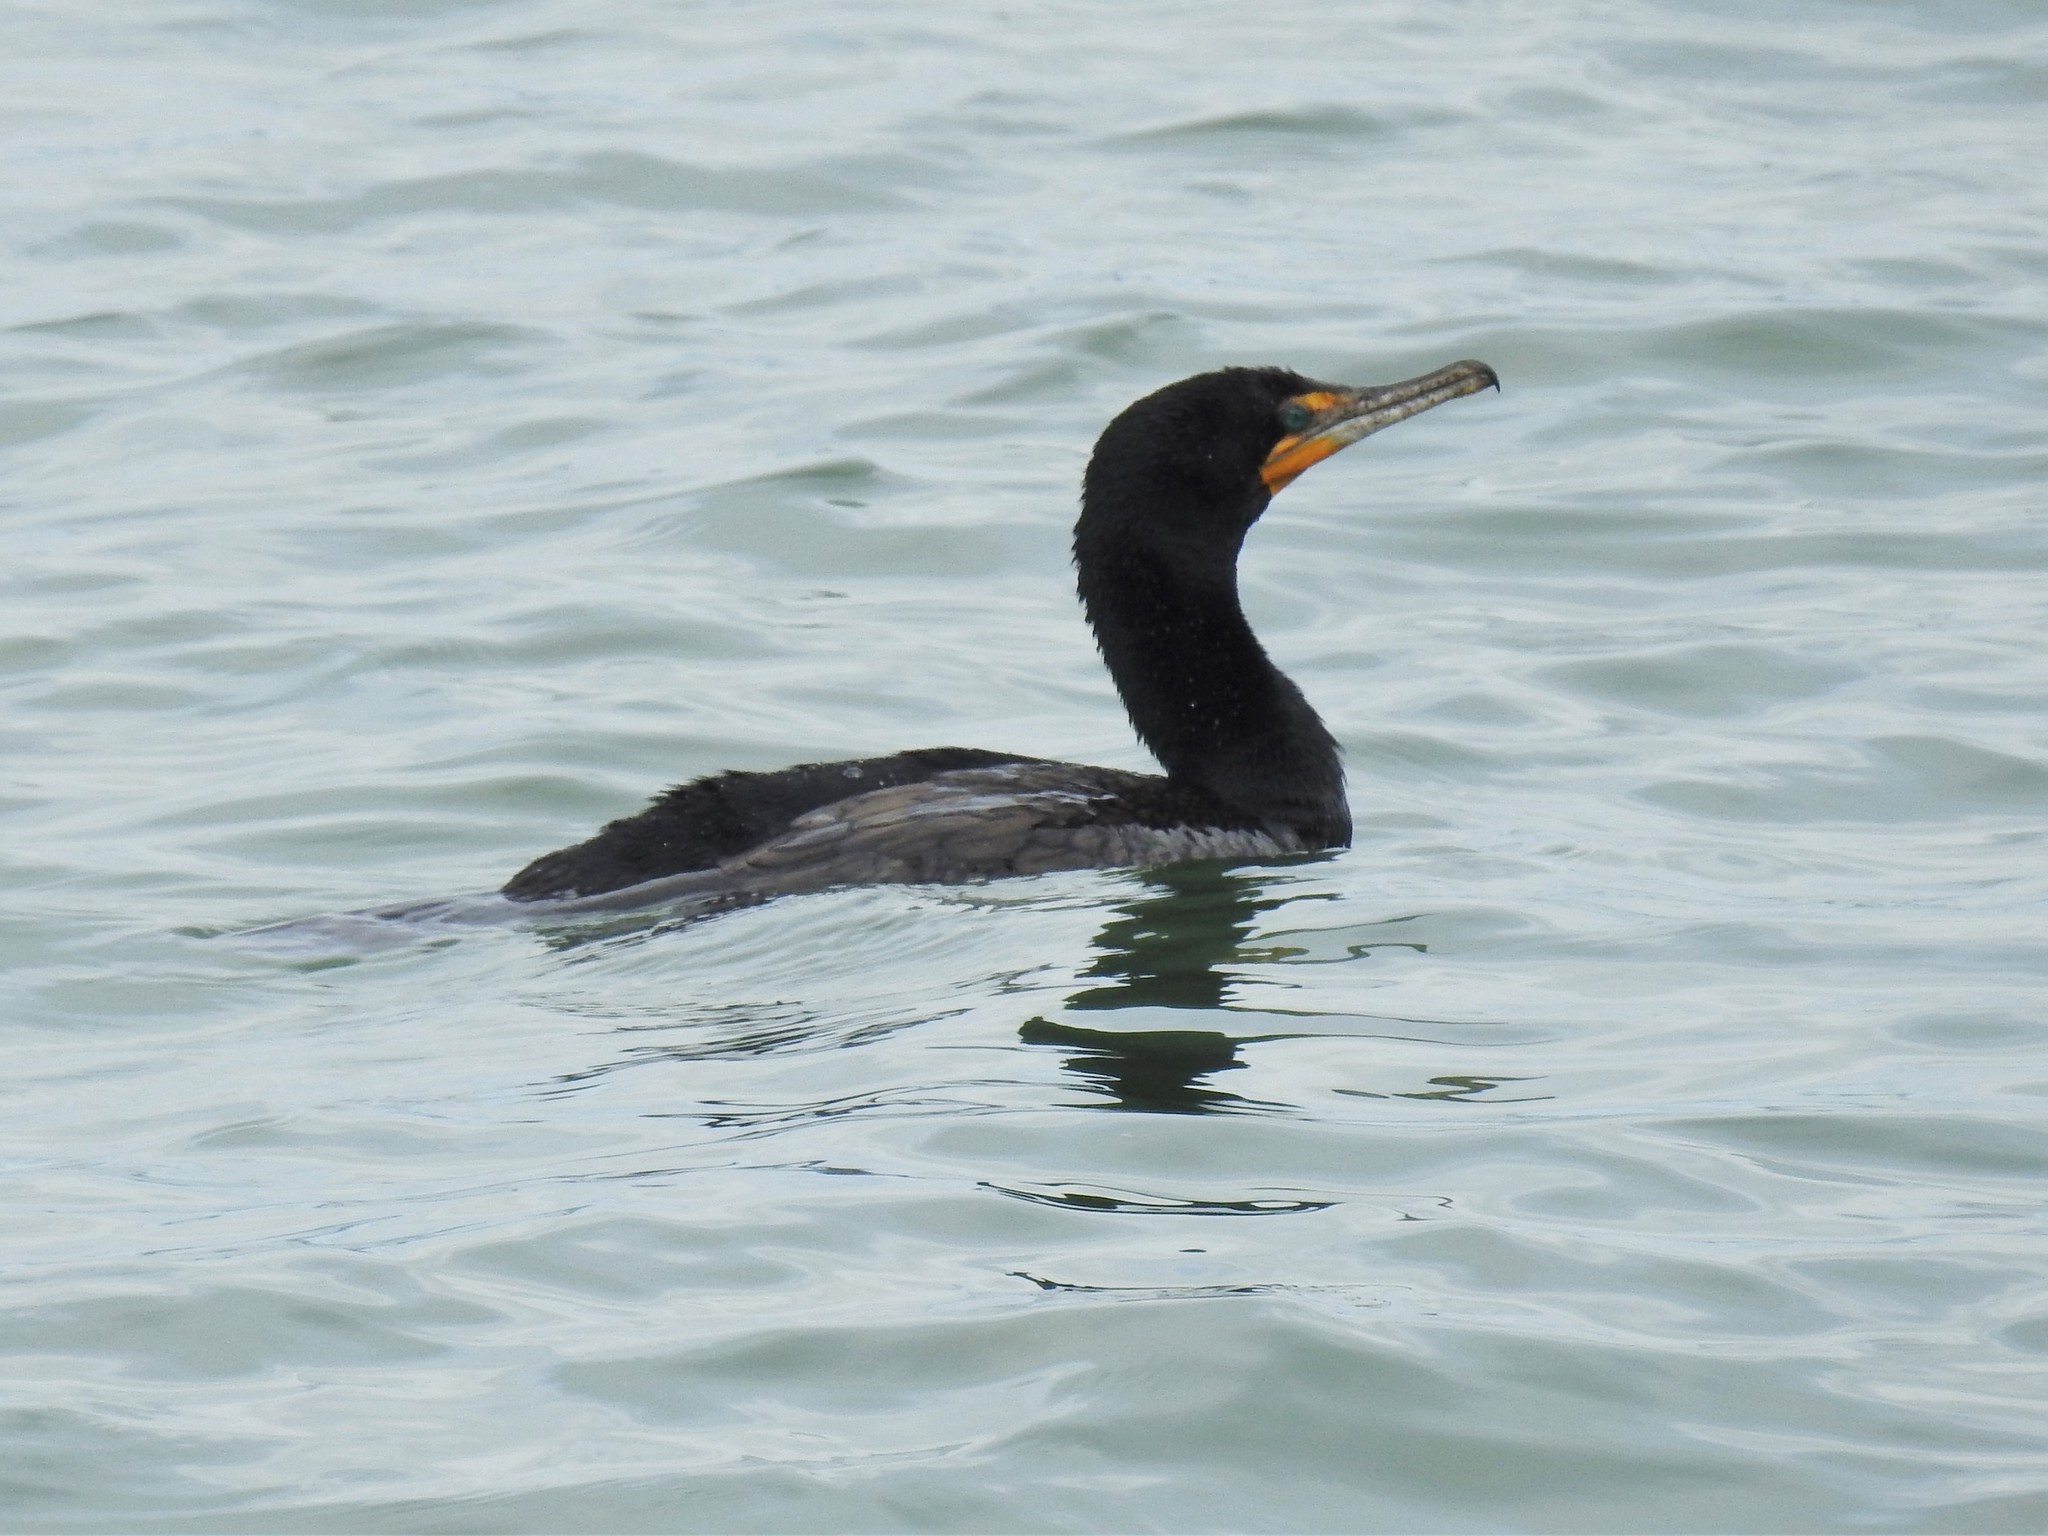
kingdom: Animalia
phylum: Chordata
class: Aves
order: Suliformes
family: Phalacrocoracidae
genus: Phalacrocorax
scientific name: Phalacrocorax auritus
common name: Double-crested cormorant
